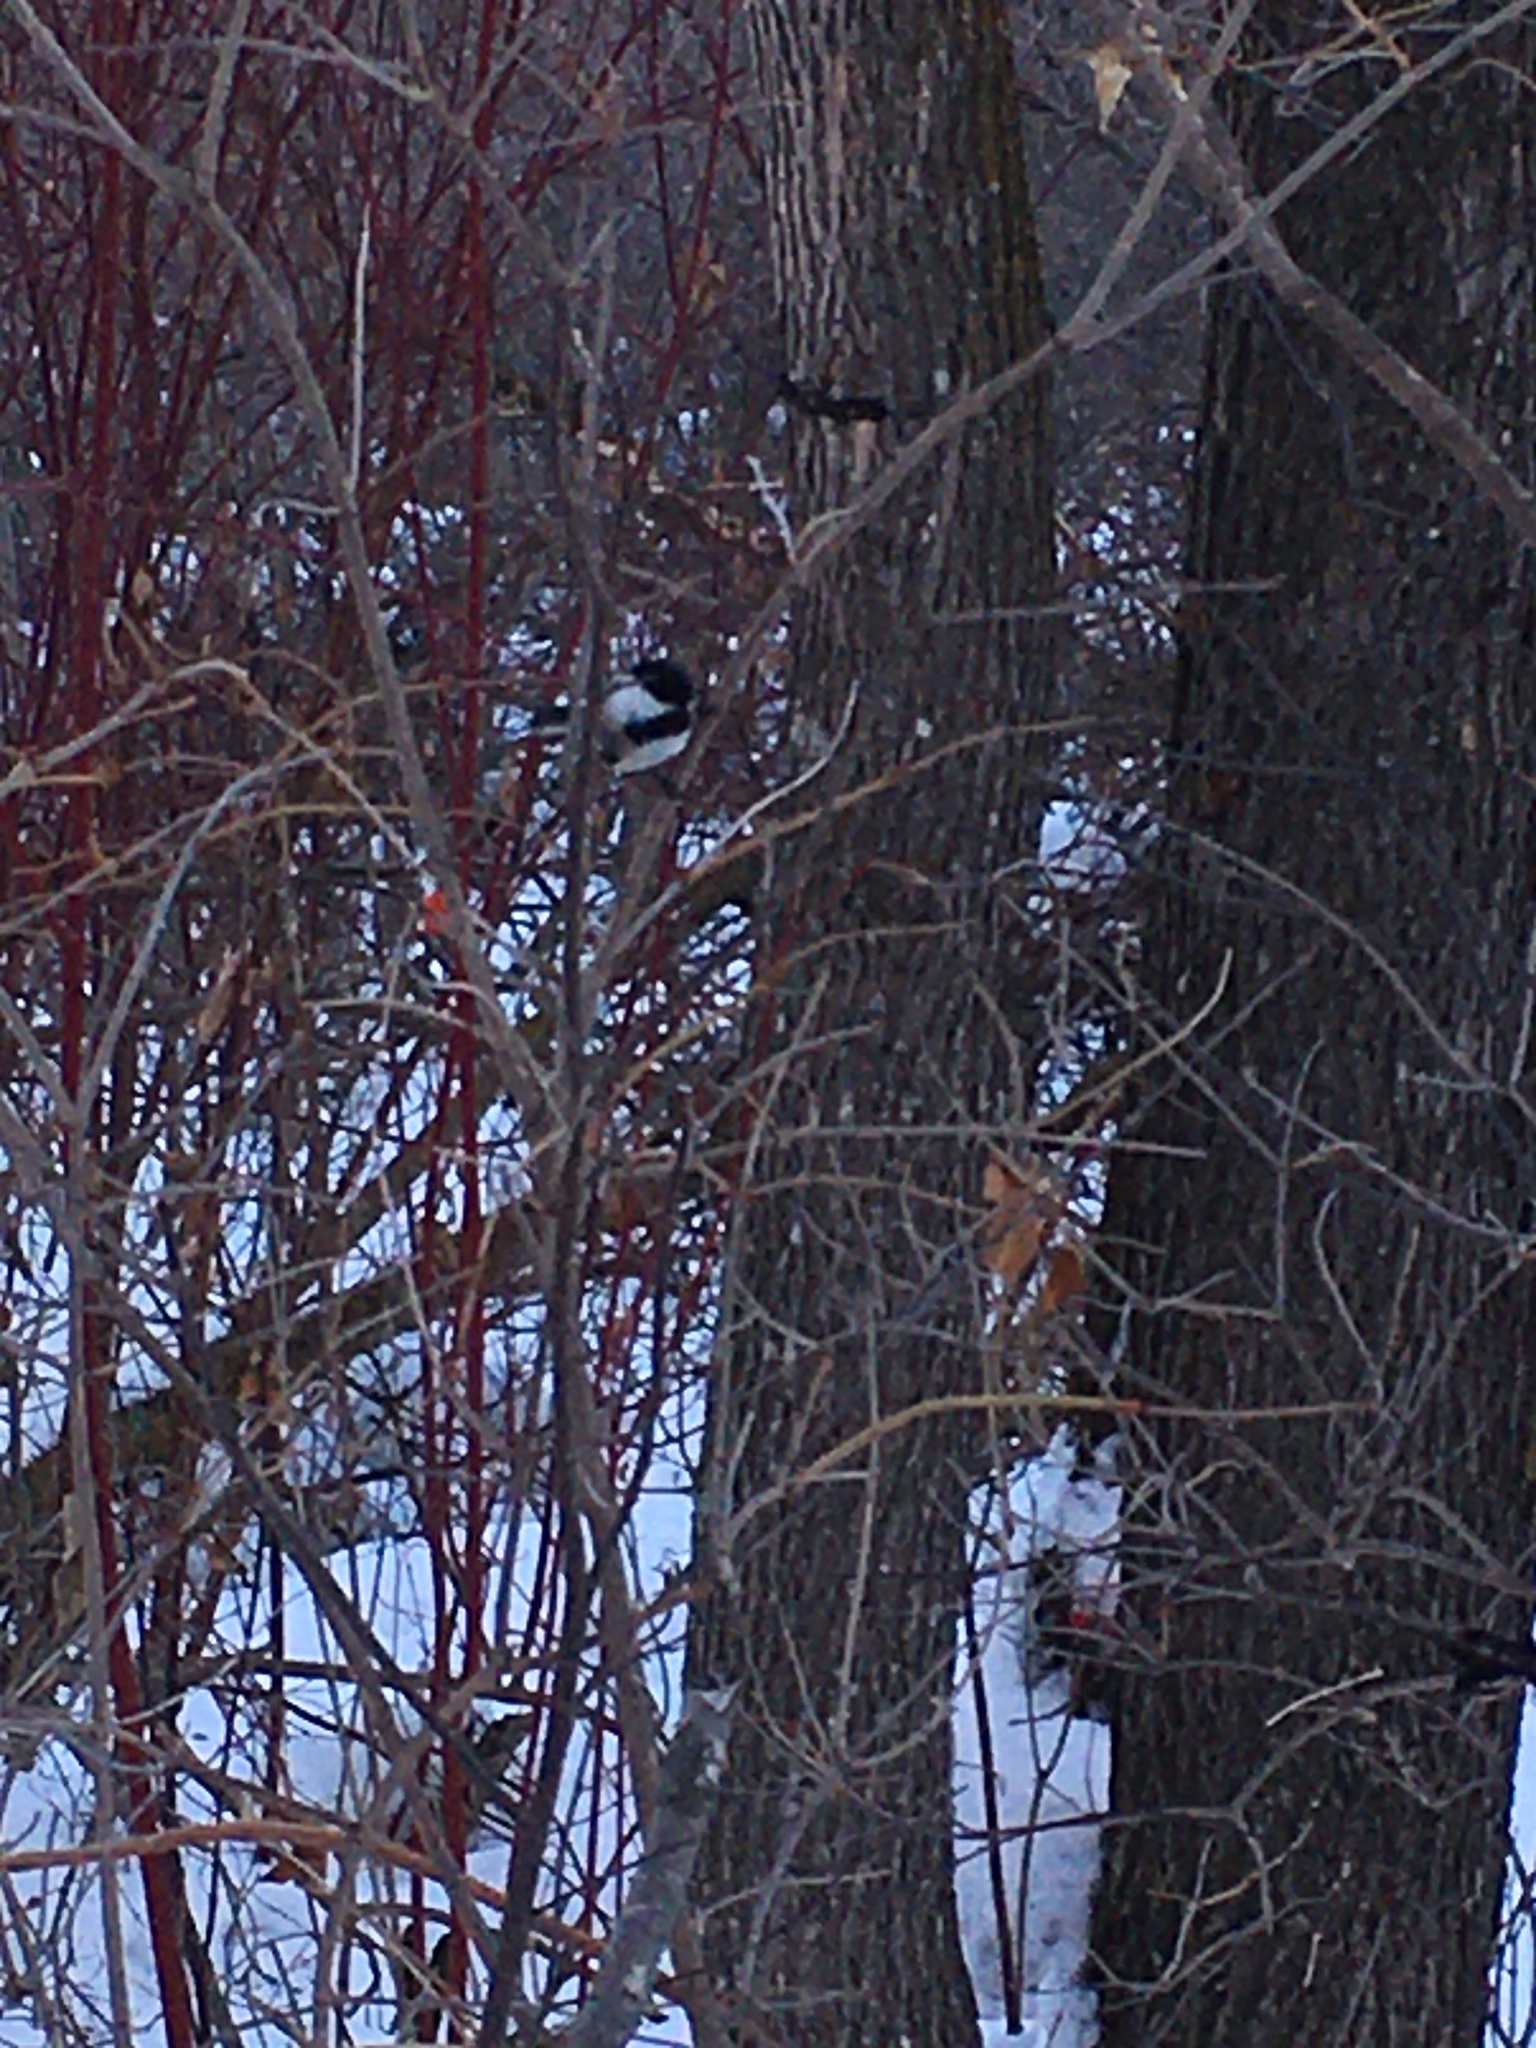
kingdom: Animalia
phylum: Chordata
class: Aves
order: Passeriformes
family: Paridae
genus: Poecile
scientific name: Poecile atricapillus
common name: Black-capped chickadee
